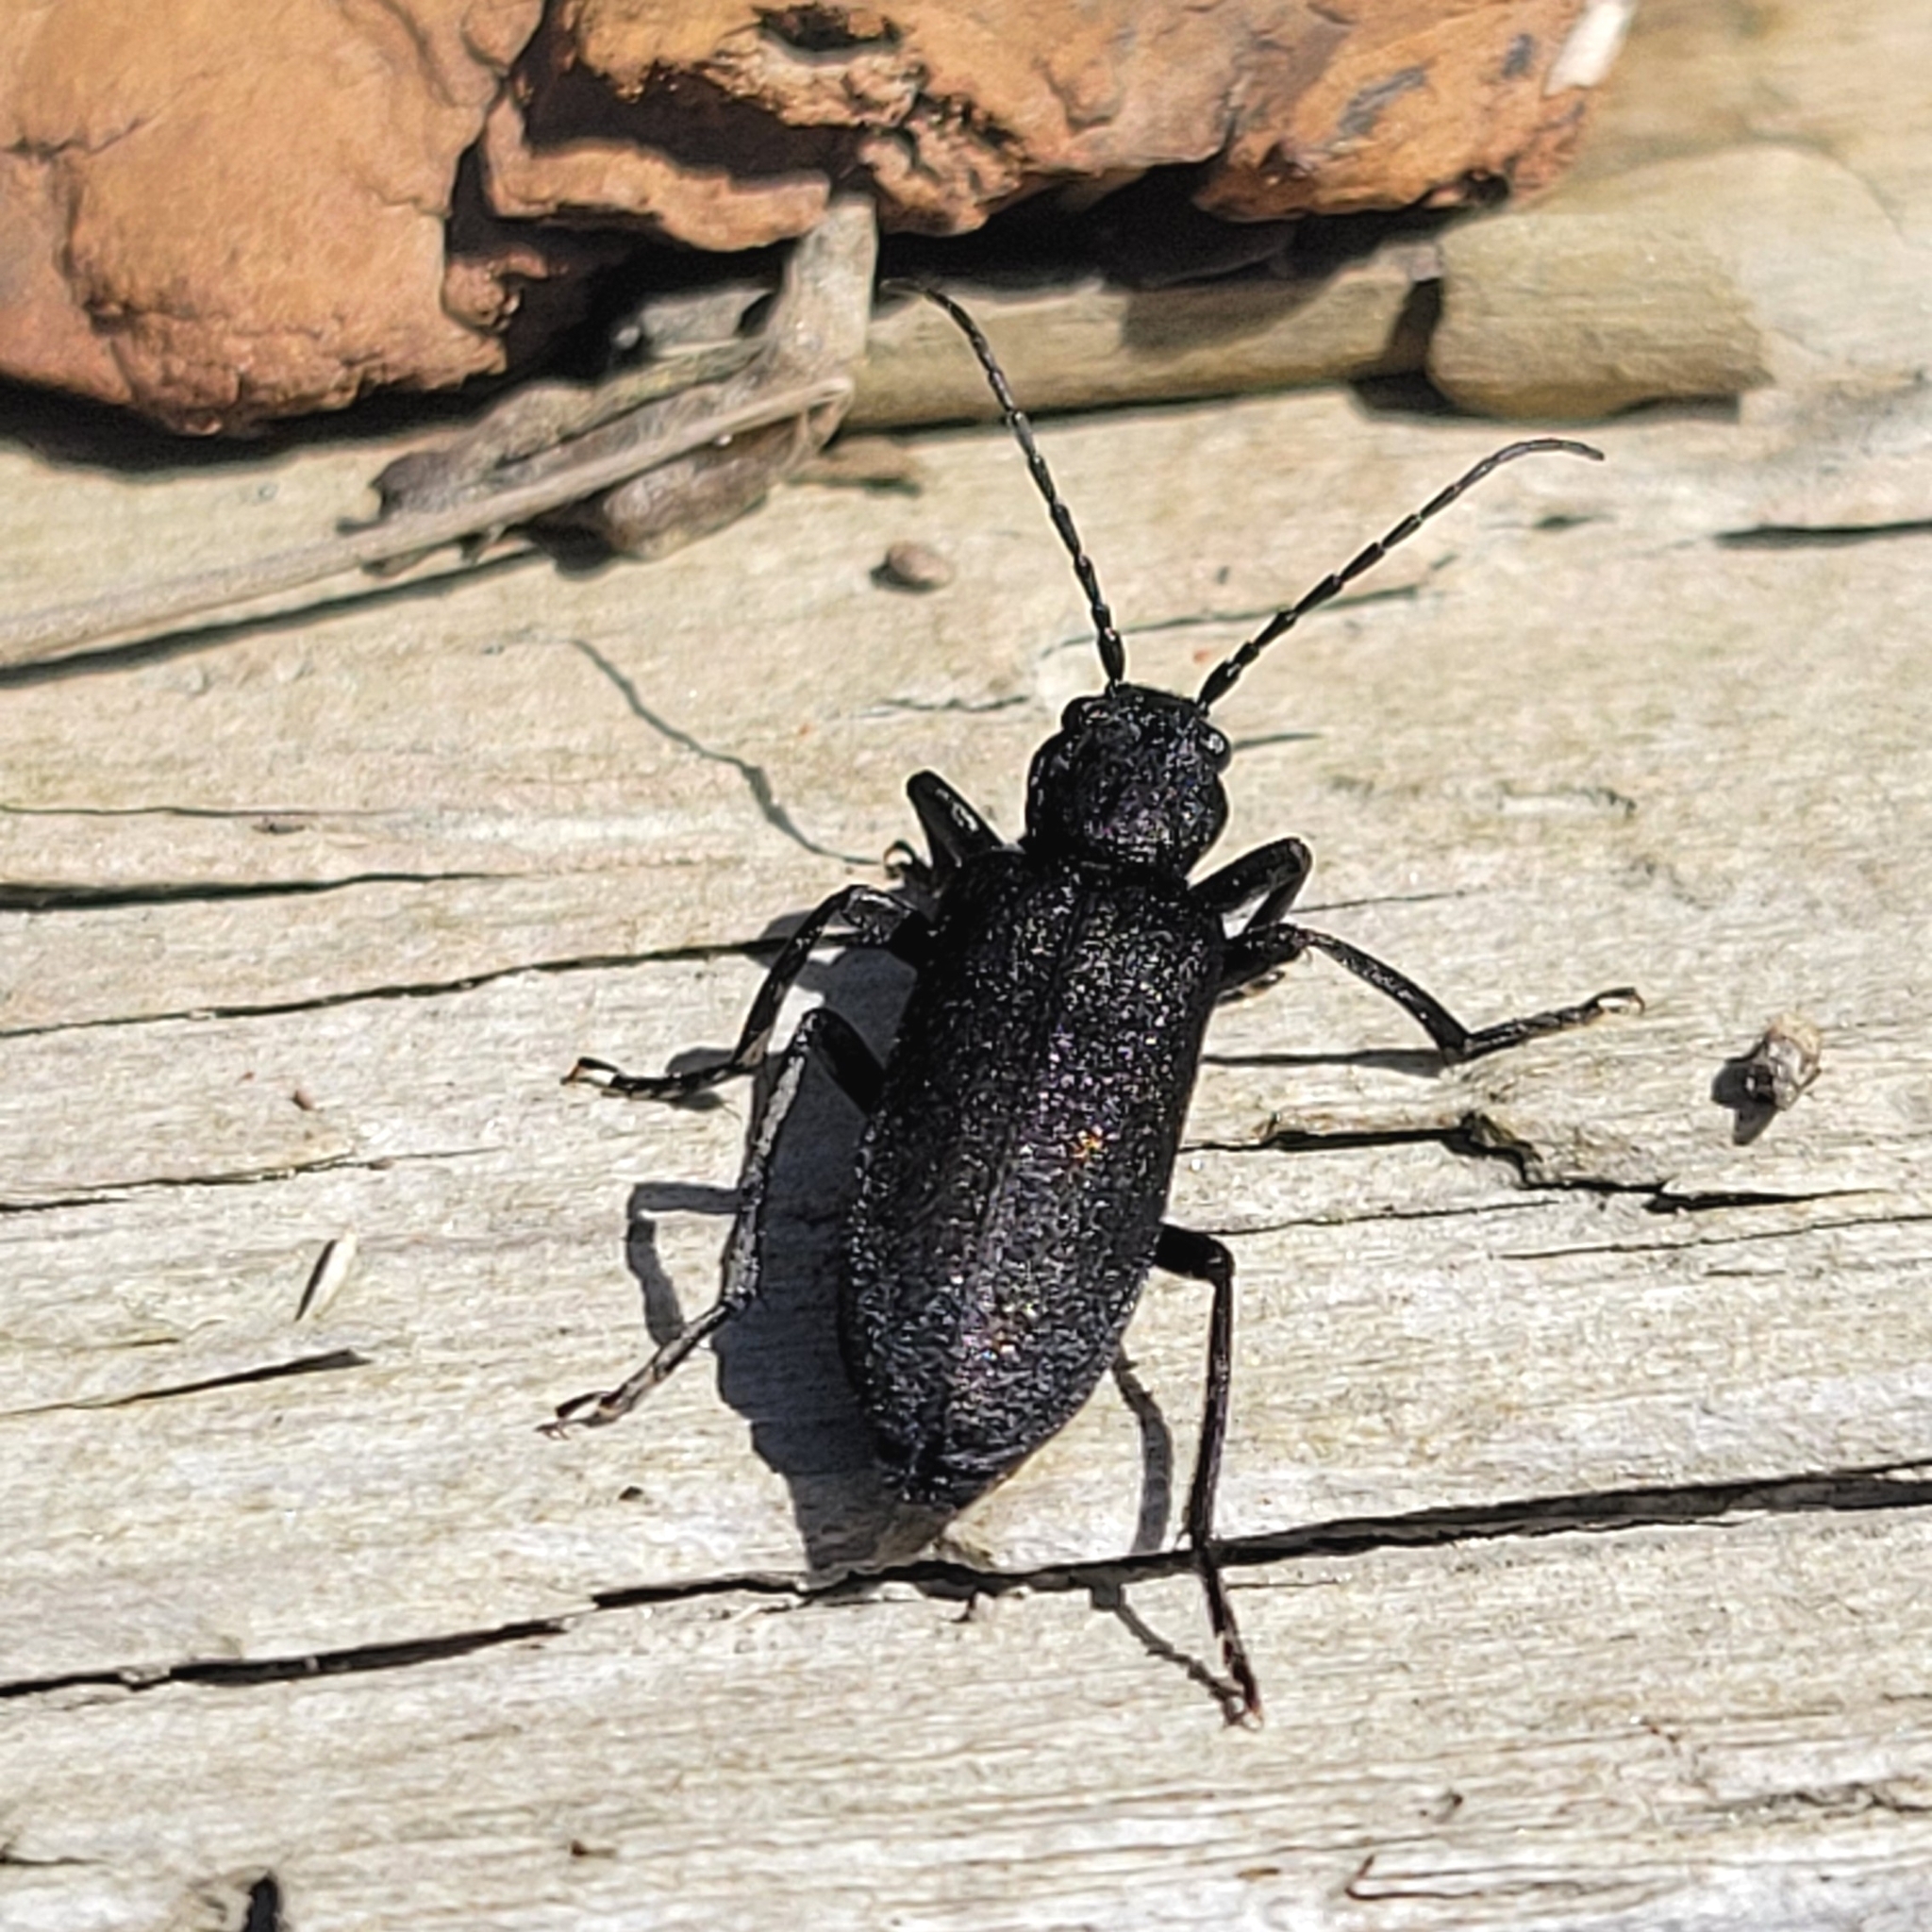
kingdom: Animalia
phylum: Arthropoda
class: Insecta
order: Coleoptera
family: Oedemeridae
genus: Ditylus
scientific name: Ditylus quadricollis
